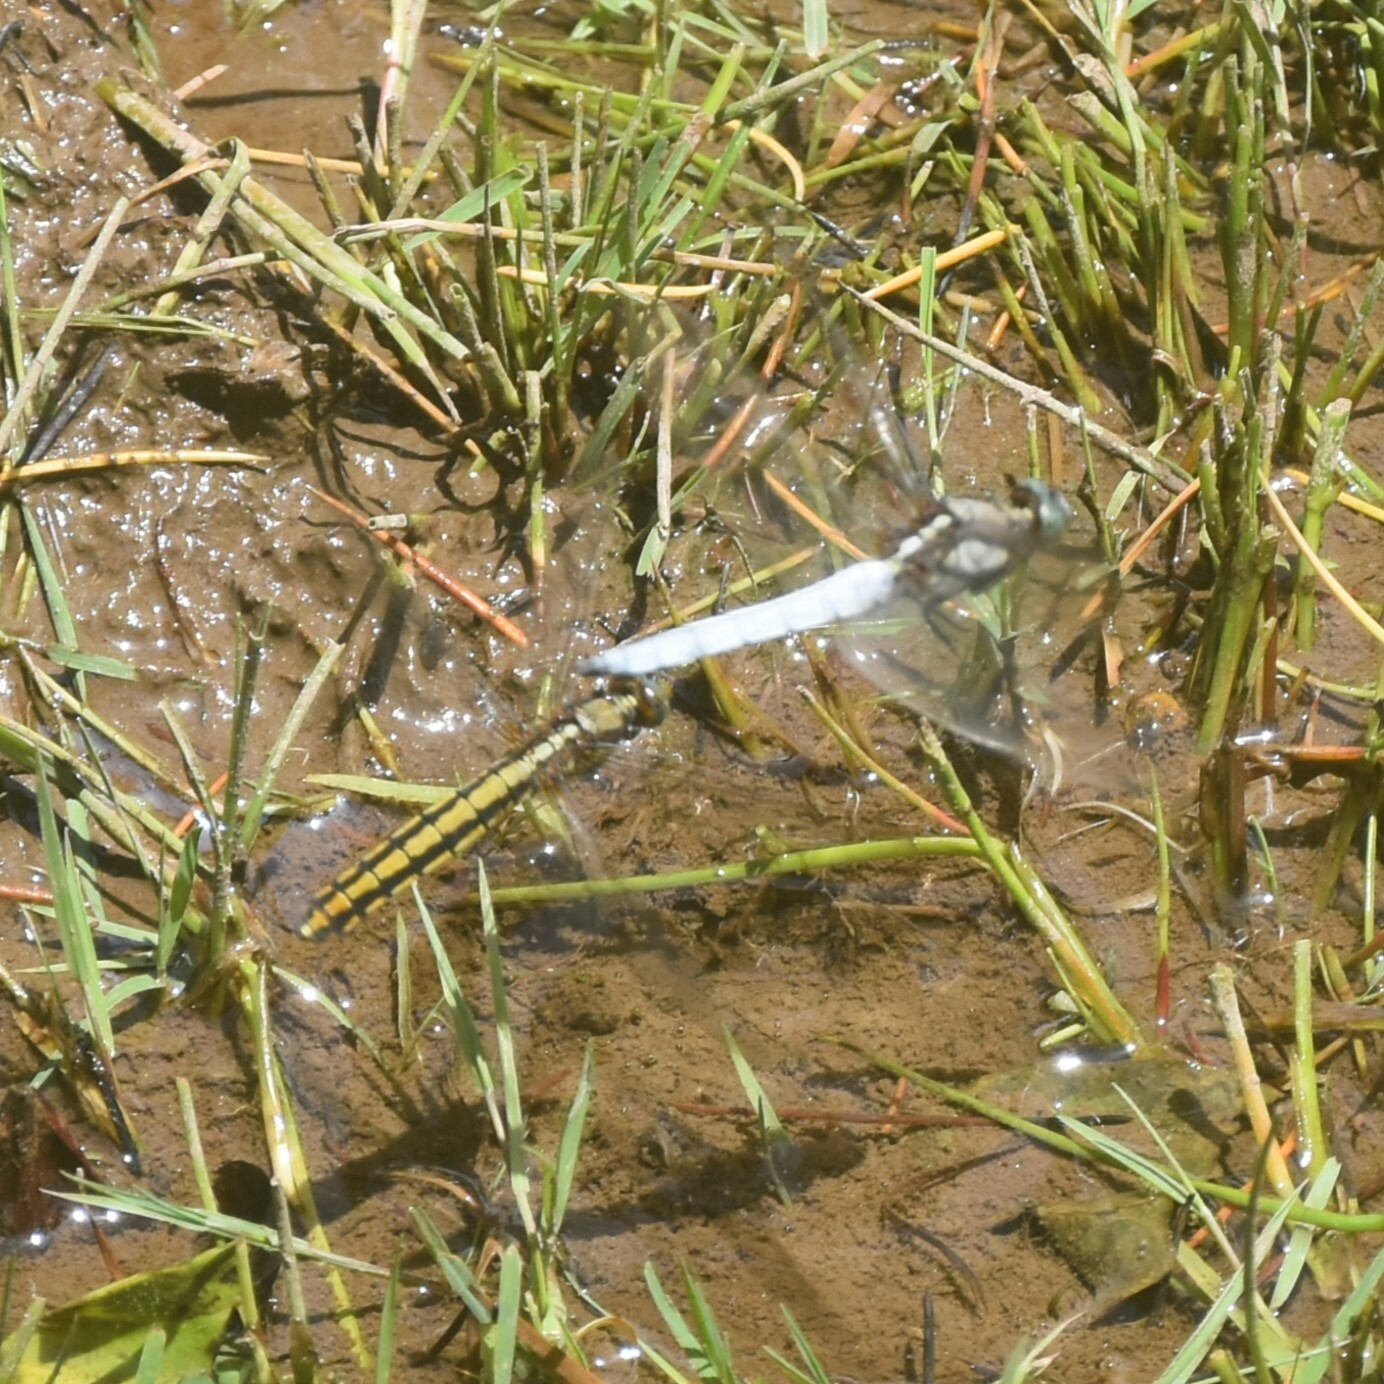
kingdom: Animalia
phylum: Arthropoda
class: Insecta
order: Odonata
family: Libellulidae
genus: Orthetrum
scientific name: Orthetrum internum
